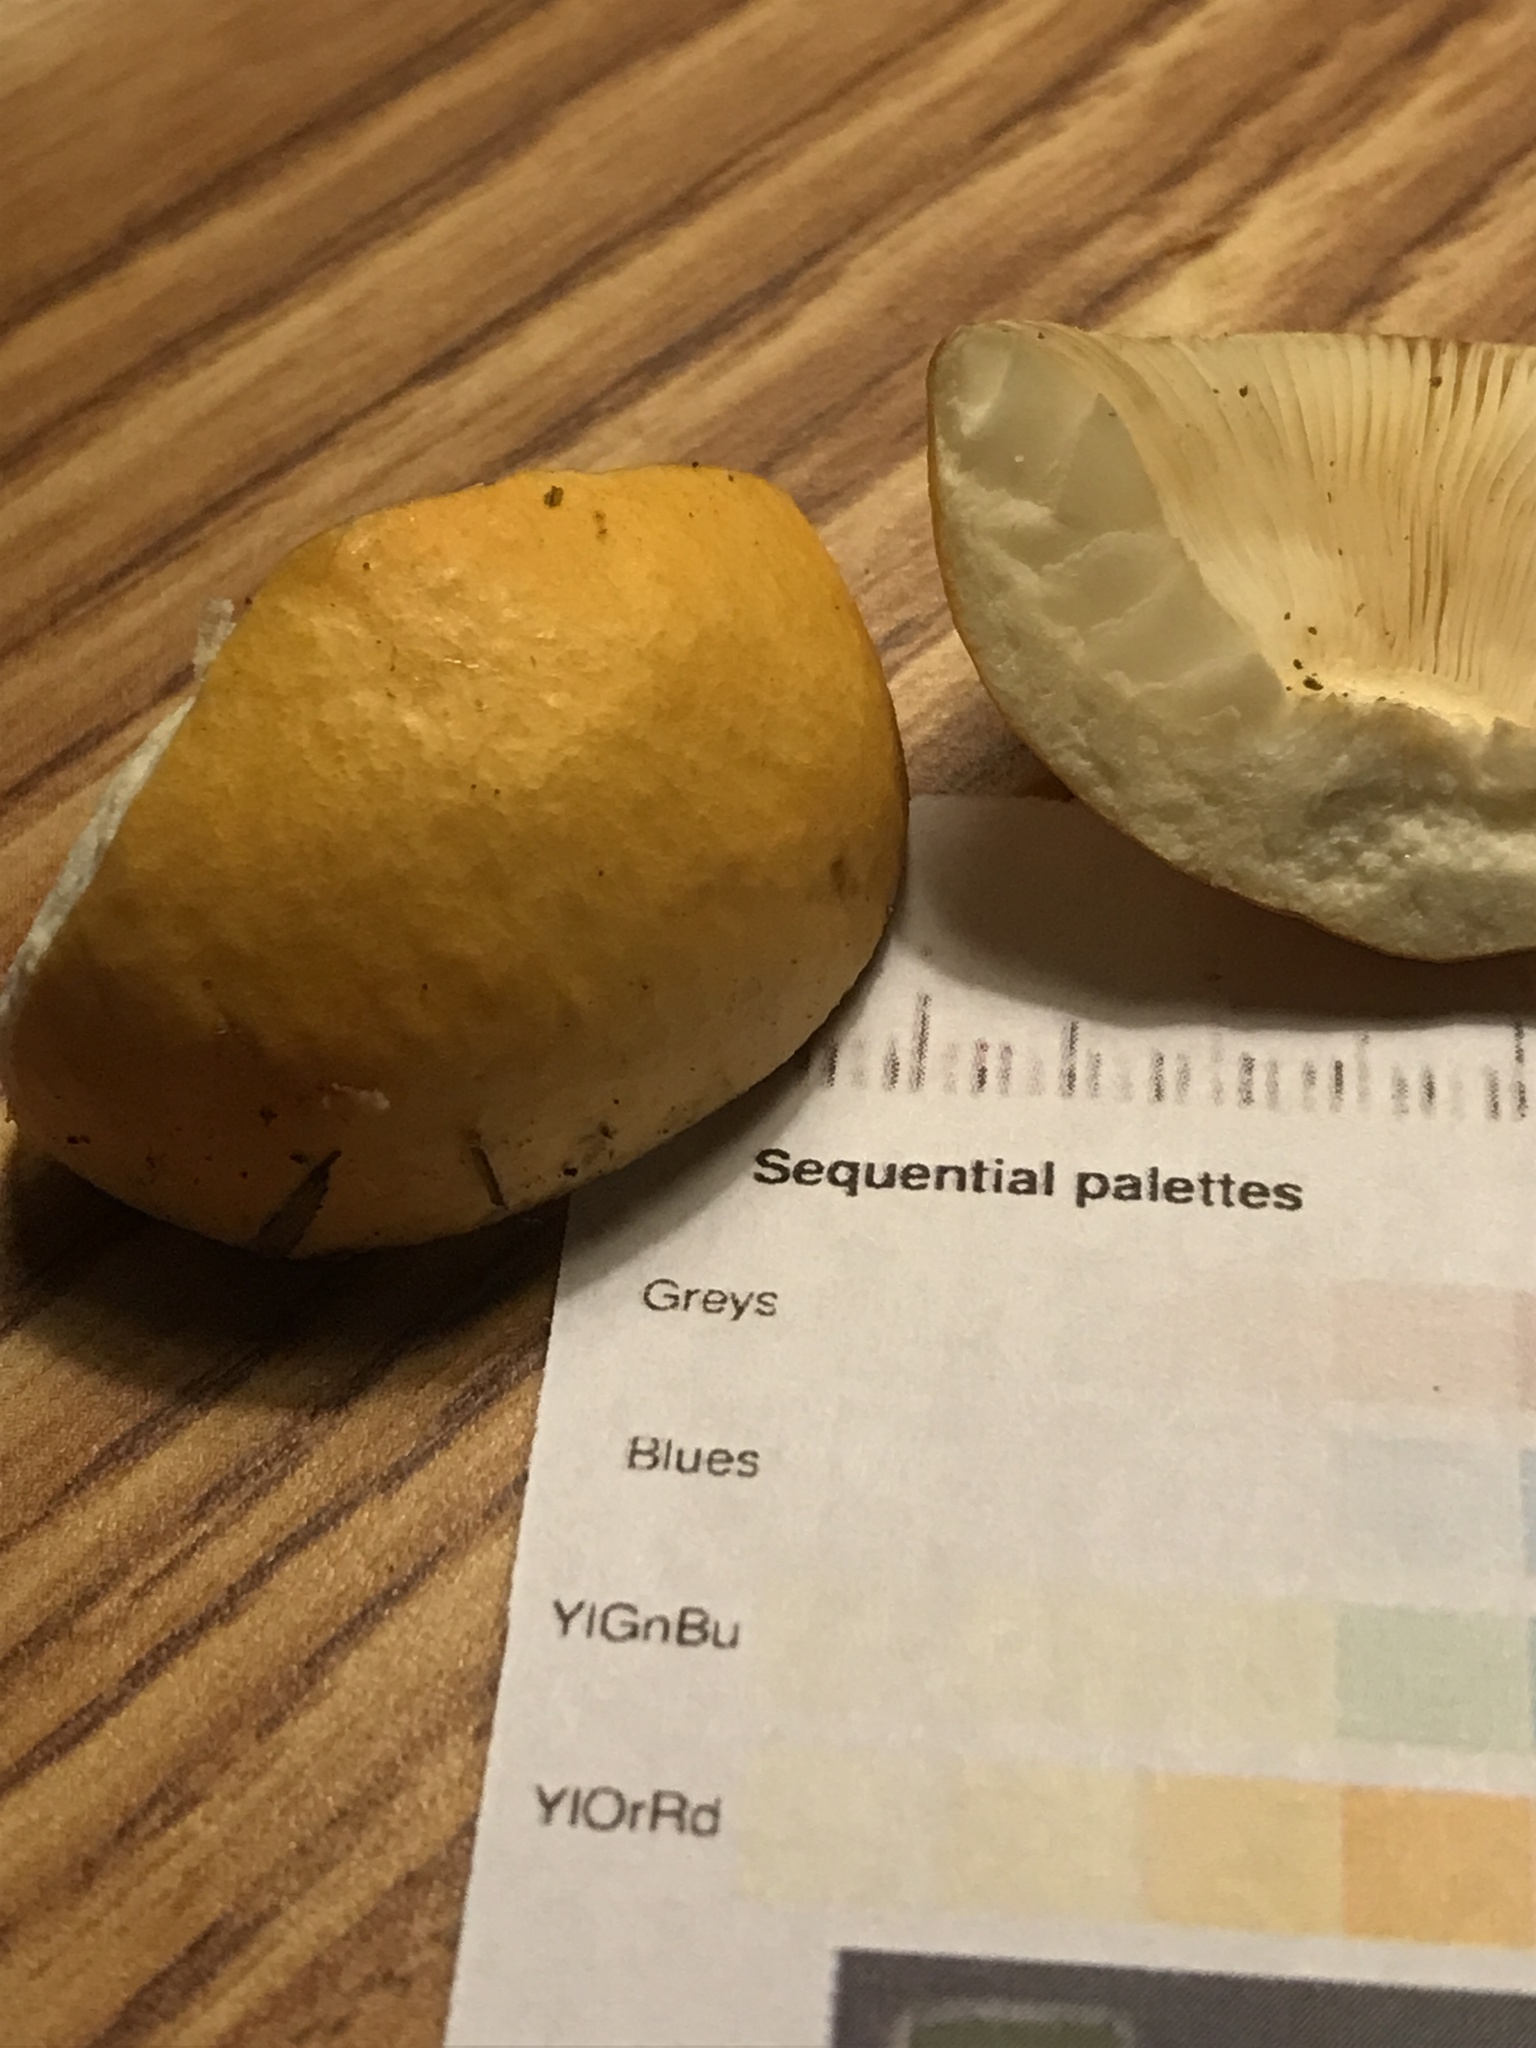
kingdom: Fungi
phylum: Basidiomycota
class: Agaricomycetes
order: Russulales
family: Russulaceae
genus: Russula
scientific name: Russula katarinae
